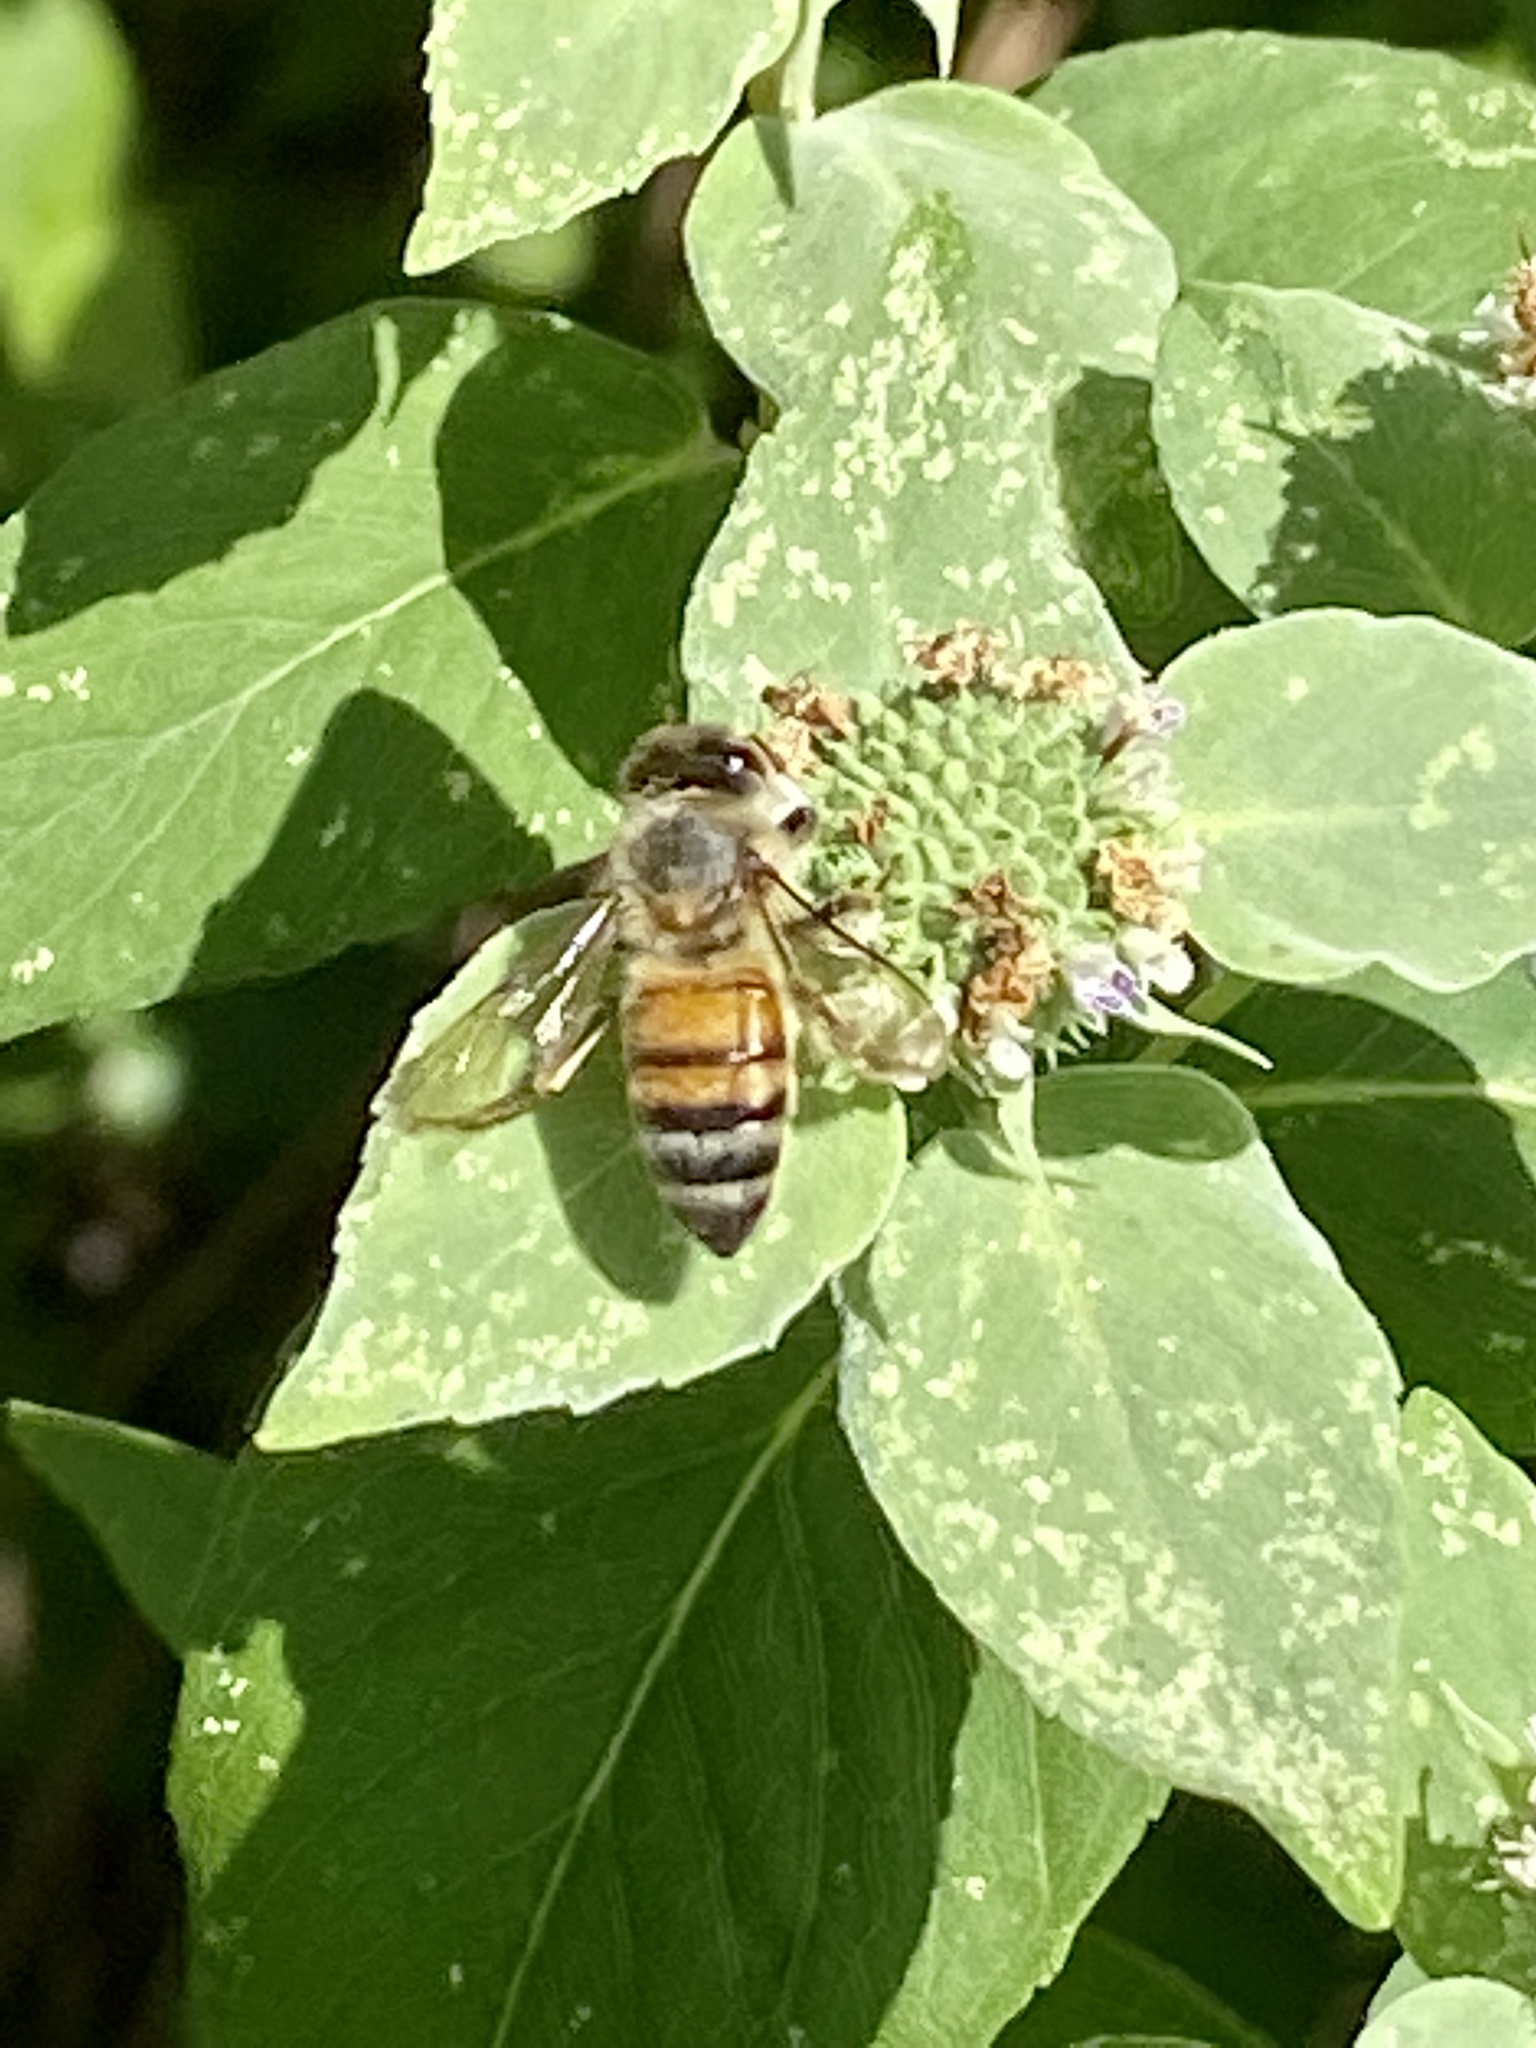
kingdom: Animalia
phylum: Arthropoda
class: Insecta
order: Hymenoptera
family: Apidae
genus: Apis
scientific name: Apis mellifera
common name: Honey bee
